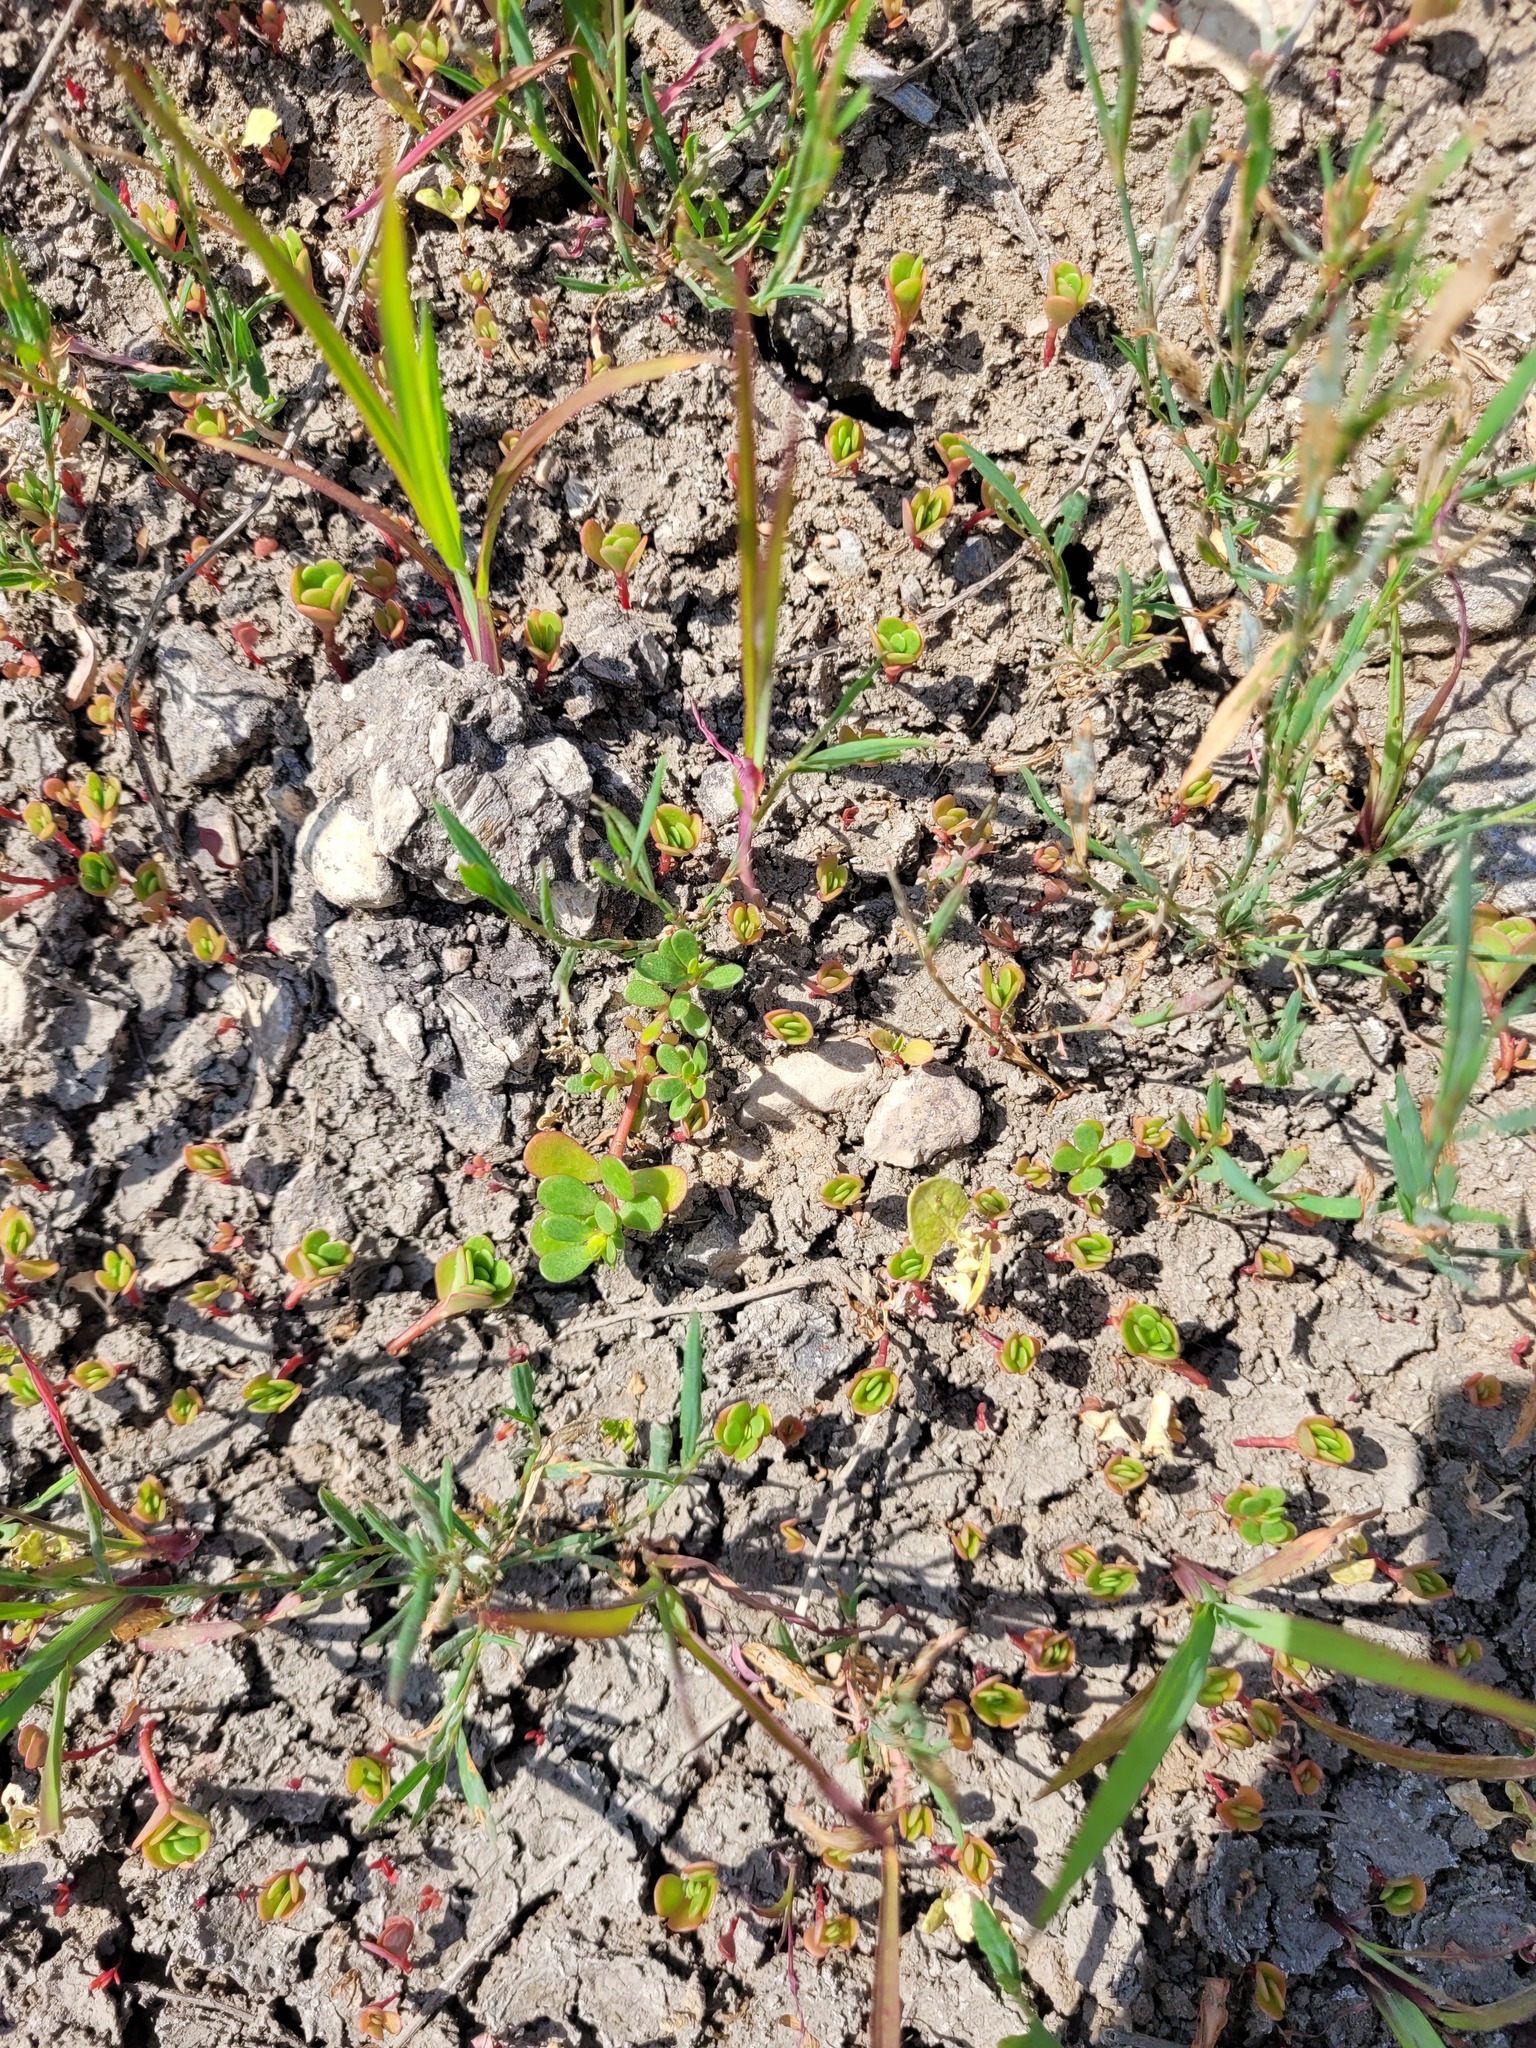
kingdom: Plantae
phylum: Tracheophyta
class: Magnoliopsida
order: Caryophyllales
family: Portulacaceae
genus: Portulaca
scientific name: Portulaca oleracea
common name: Common purslane
